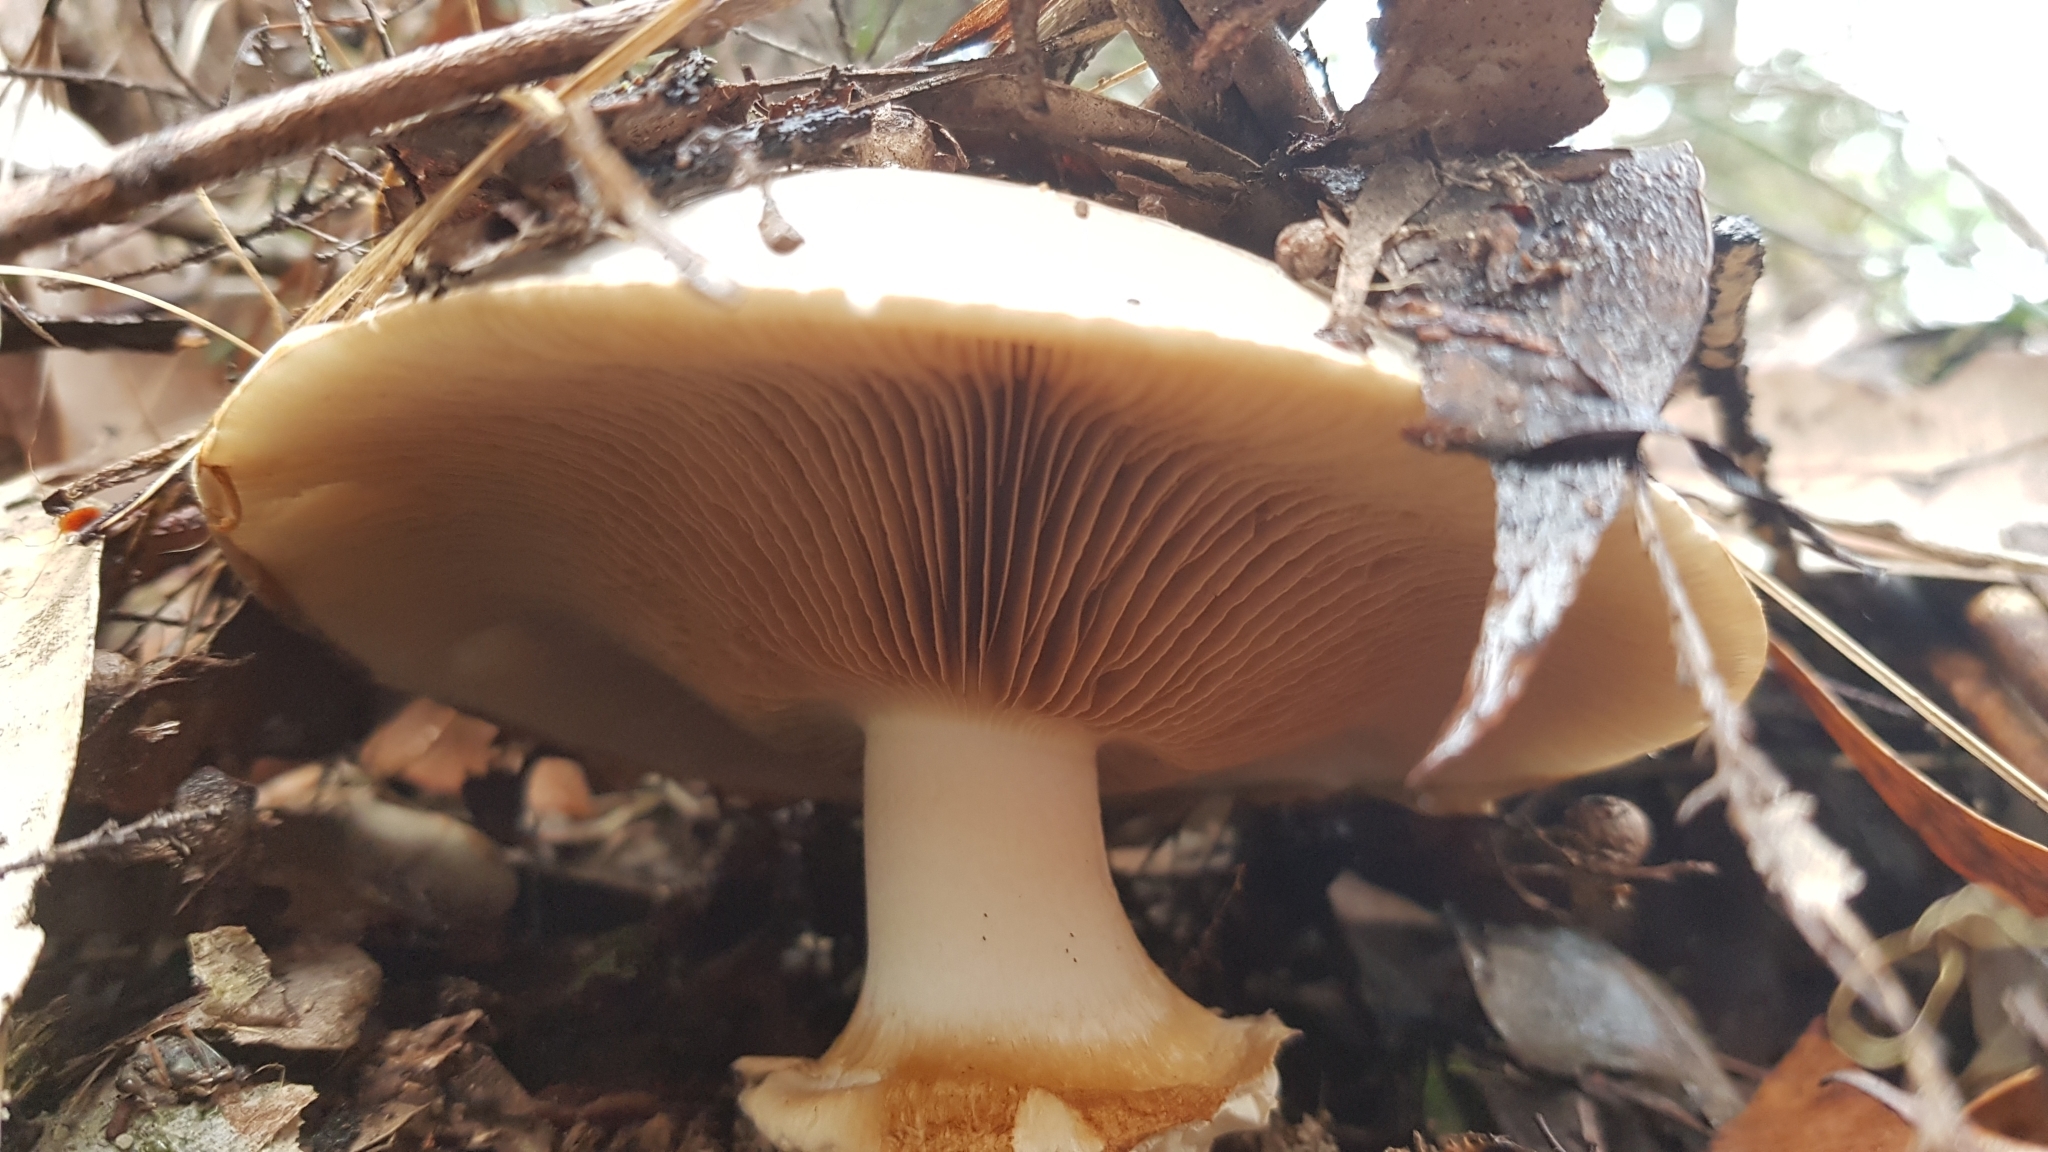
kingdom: Fungi
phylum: Basidiomycota
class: Agaricomycetes
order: Agaricales
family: Cortinariaceae
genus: Austrocortinarius
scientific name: Austrocortinarius australiensis
